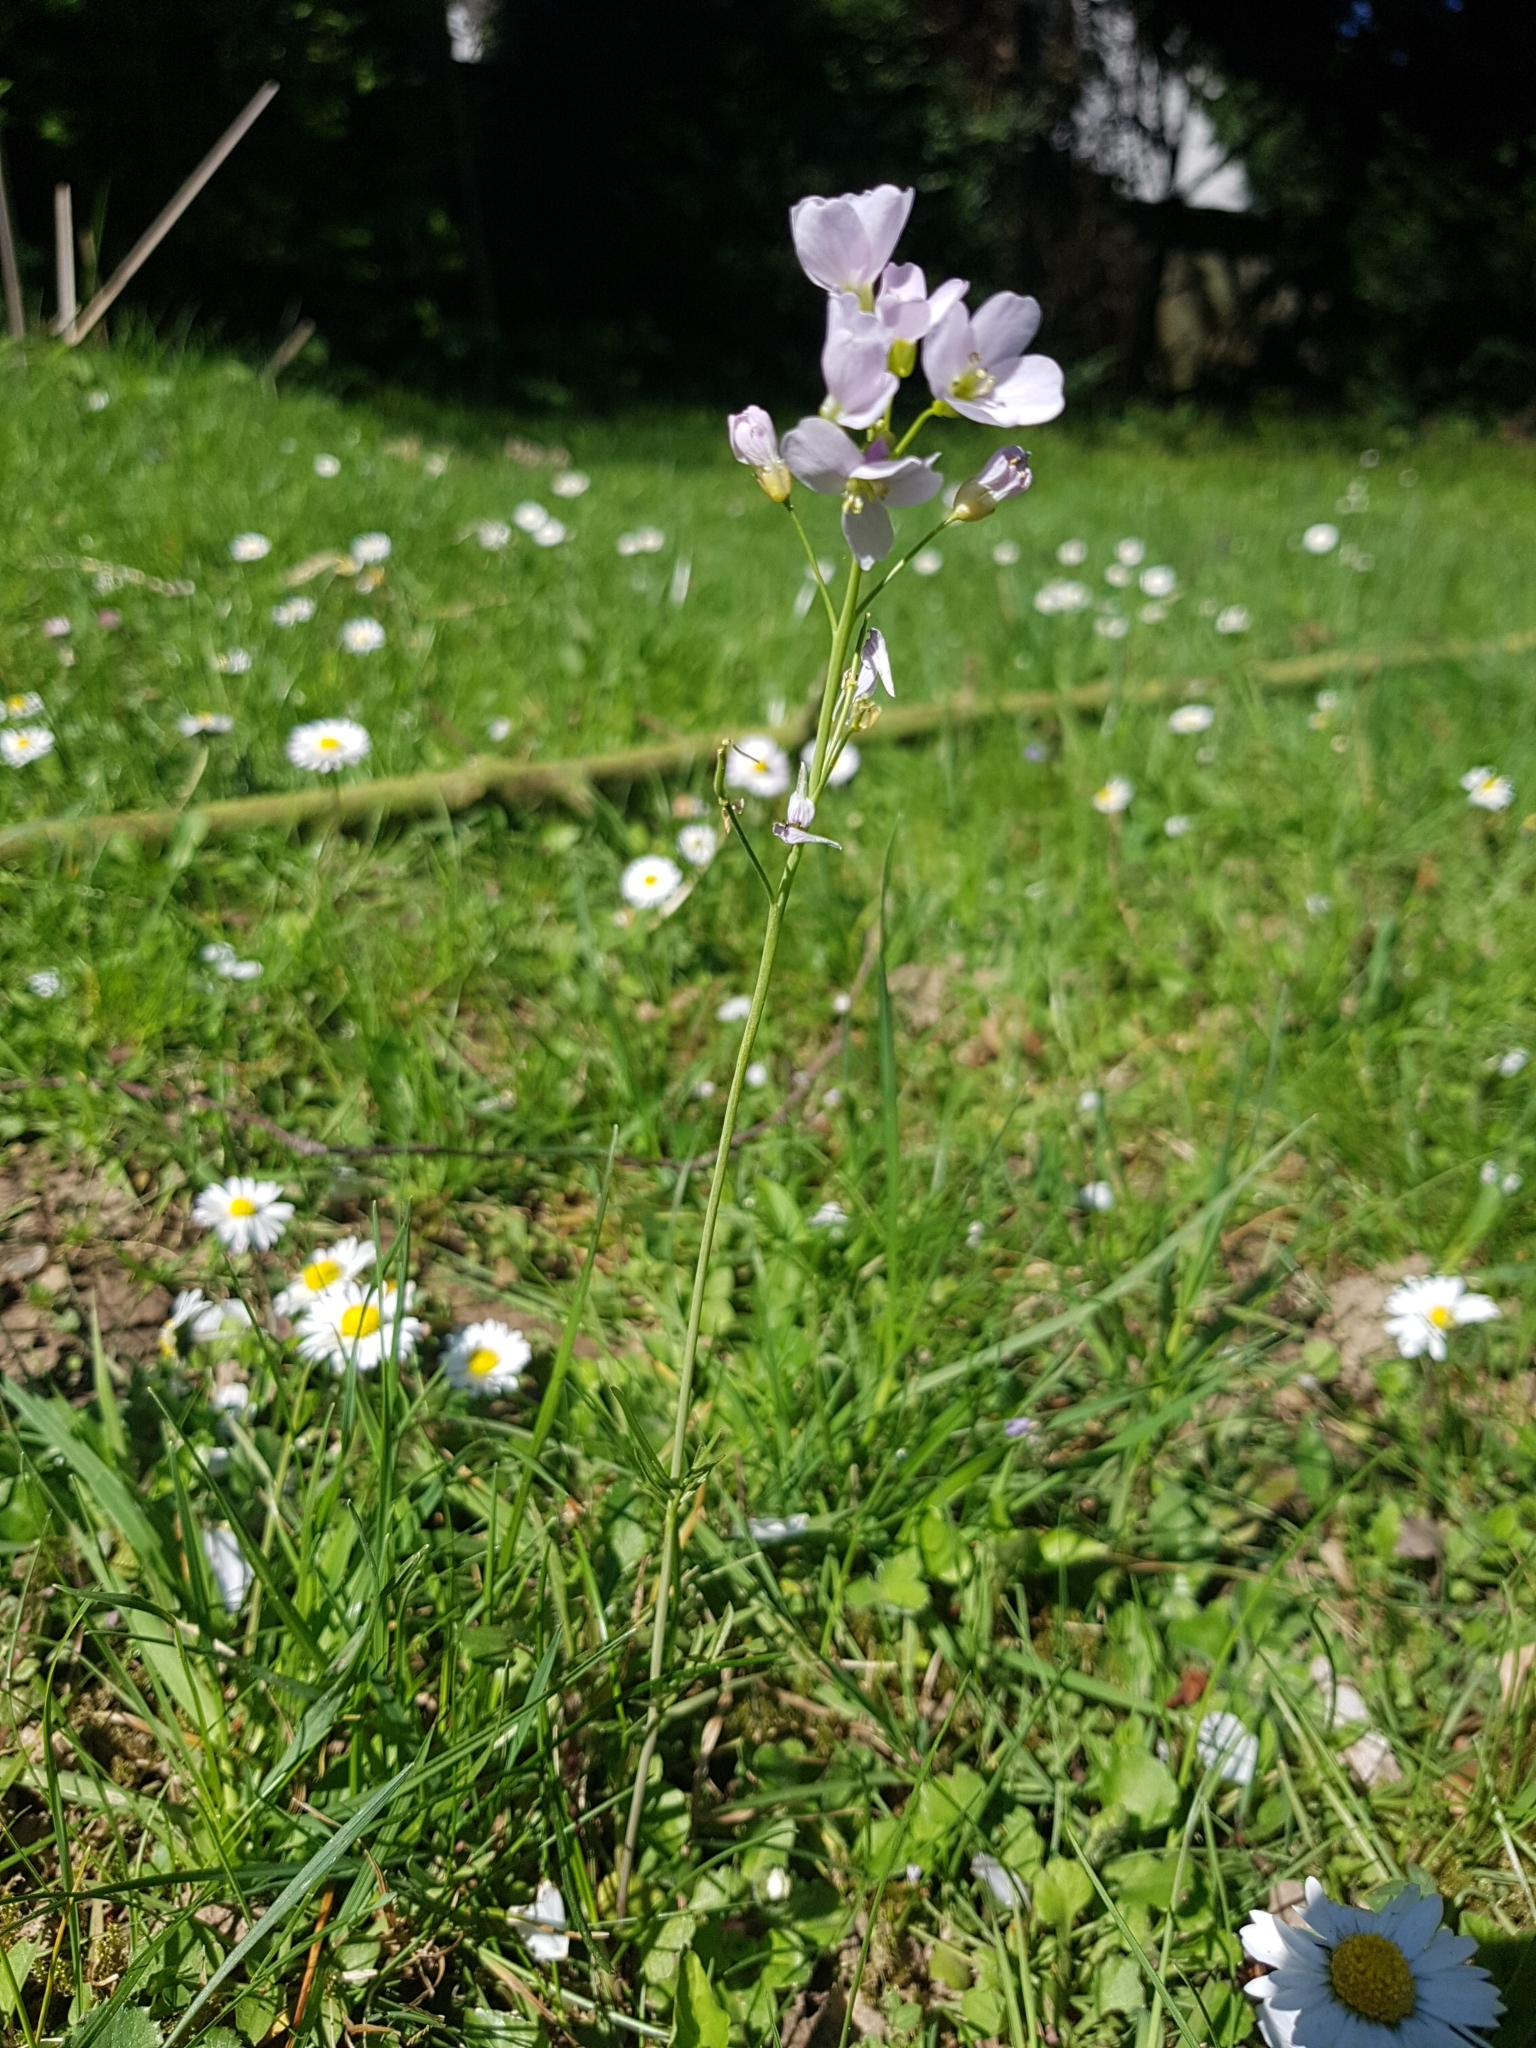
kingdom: Plantae
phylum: Tracheophyta
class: Magnoliopsida
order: Brassicales
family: Brassicaceae
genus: Cardamine
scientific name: Cardamine pratensis
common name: Cuckoo flower
